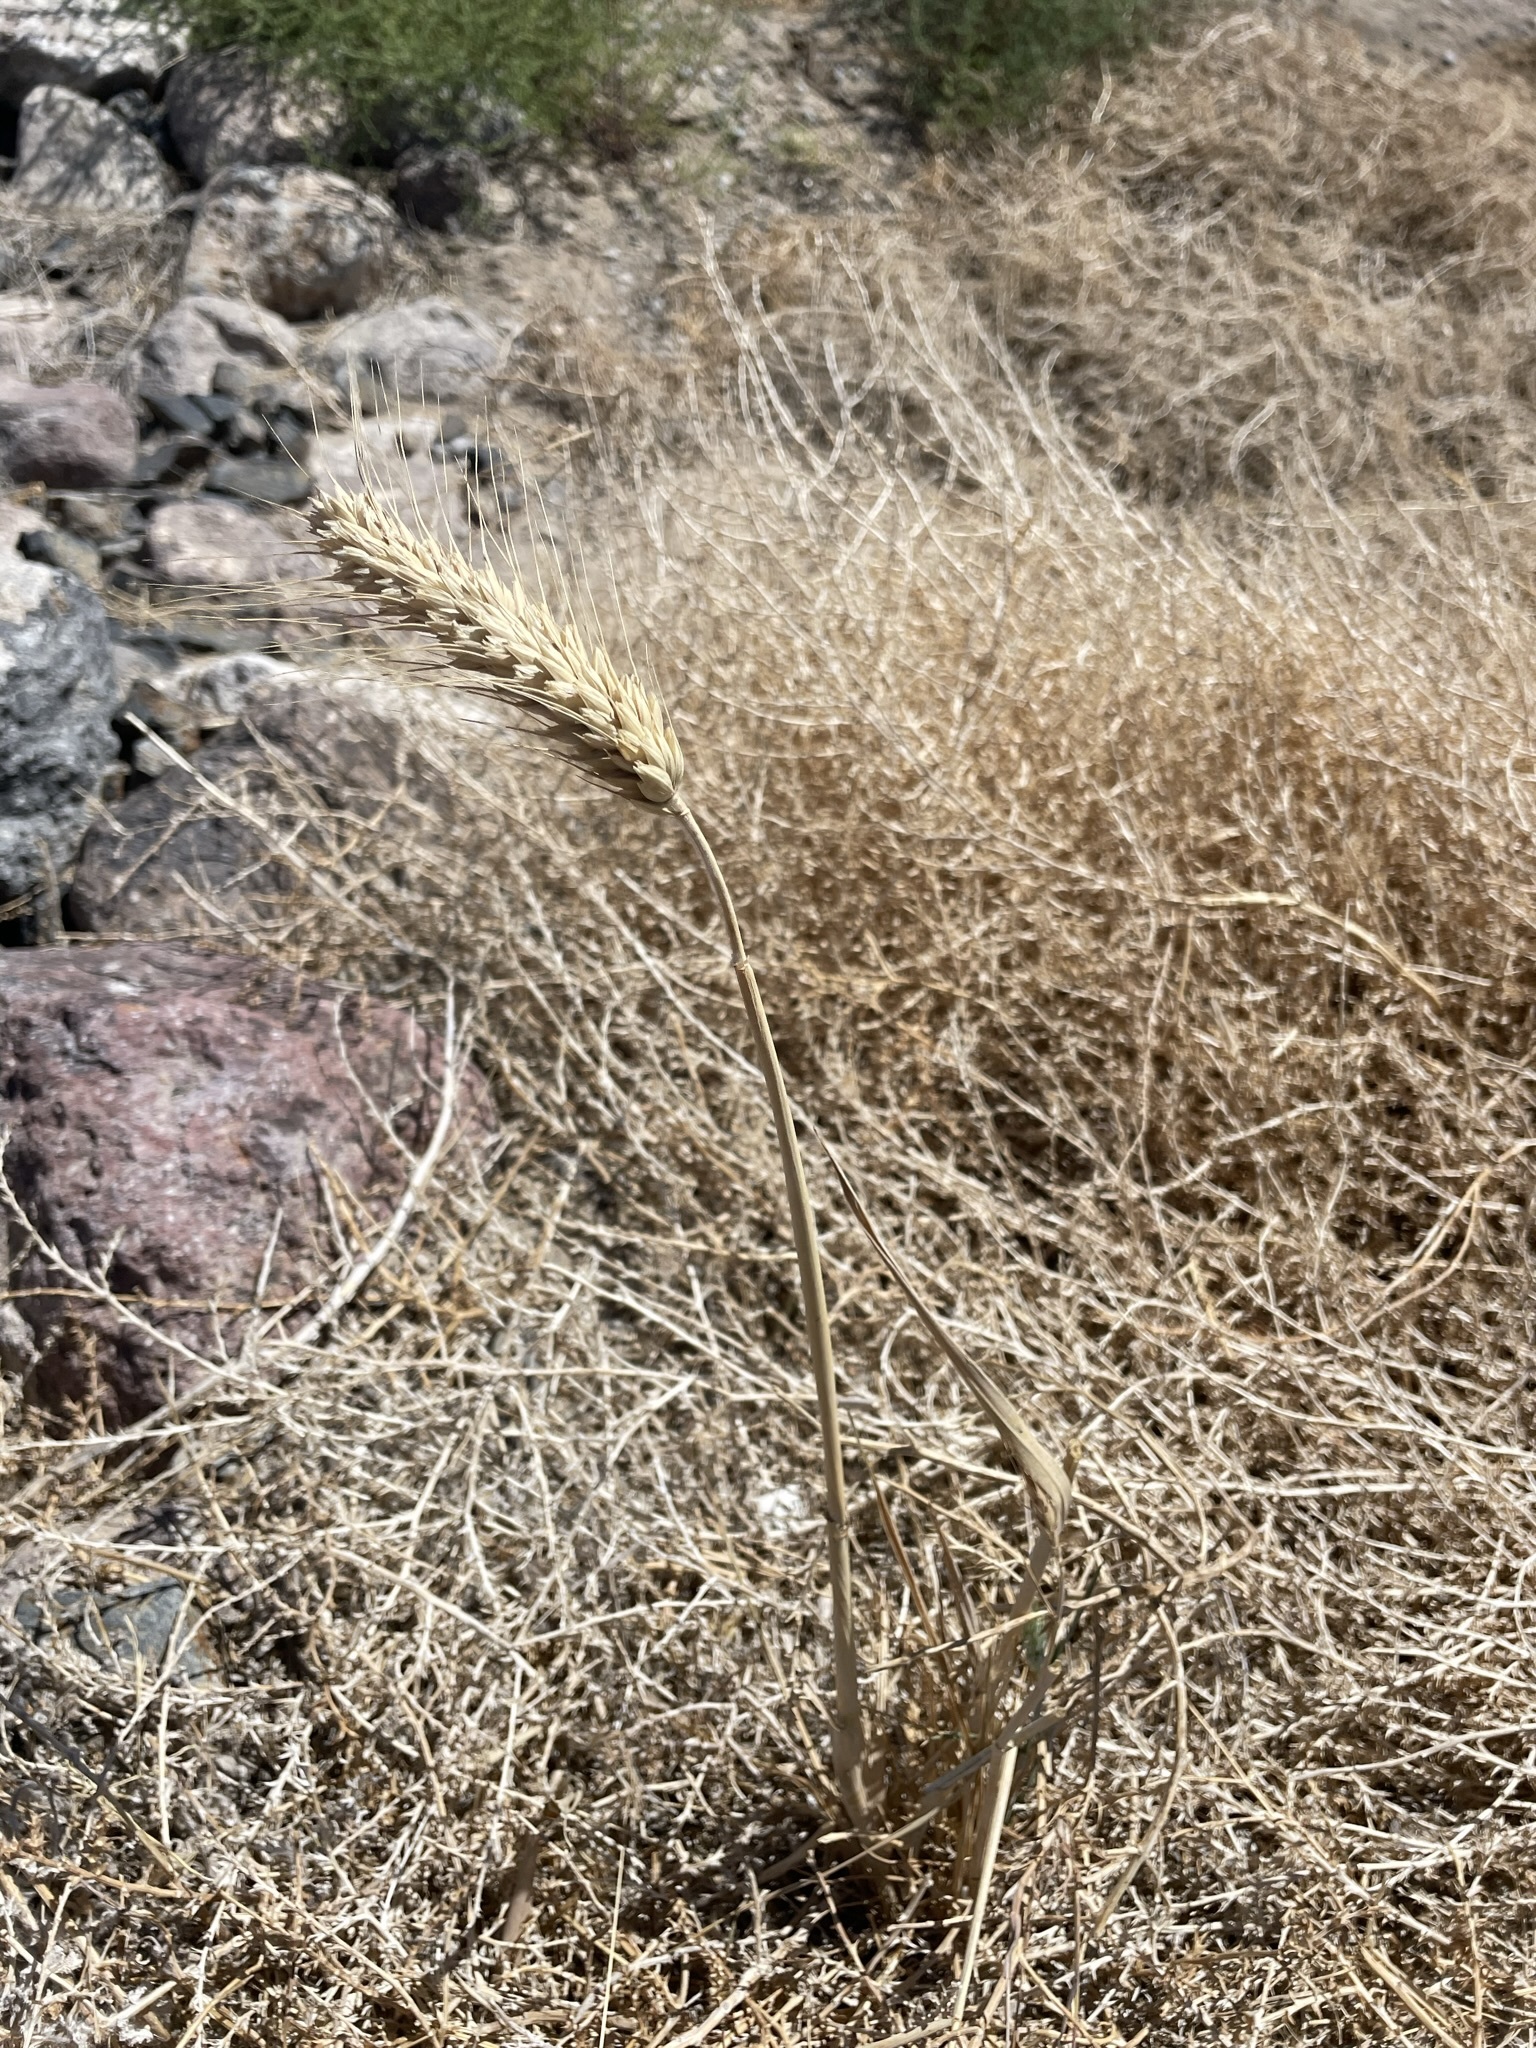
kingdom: Plantae
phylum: Tracheophyta
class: Liliopsida
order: Poales
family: Poaceae
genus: Triticum
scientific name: Triticum aestivum
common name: Common wheat
